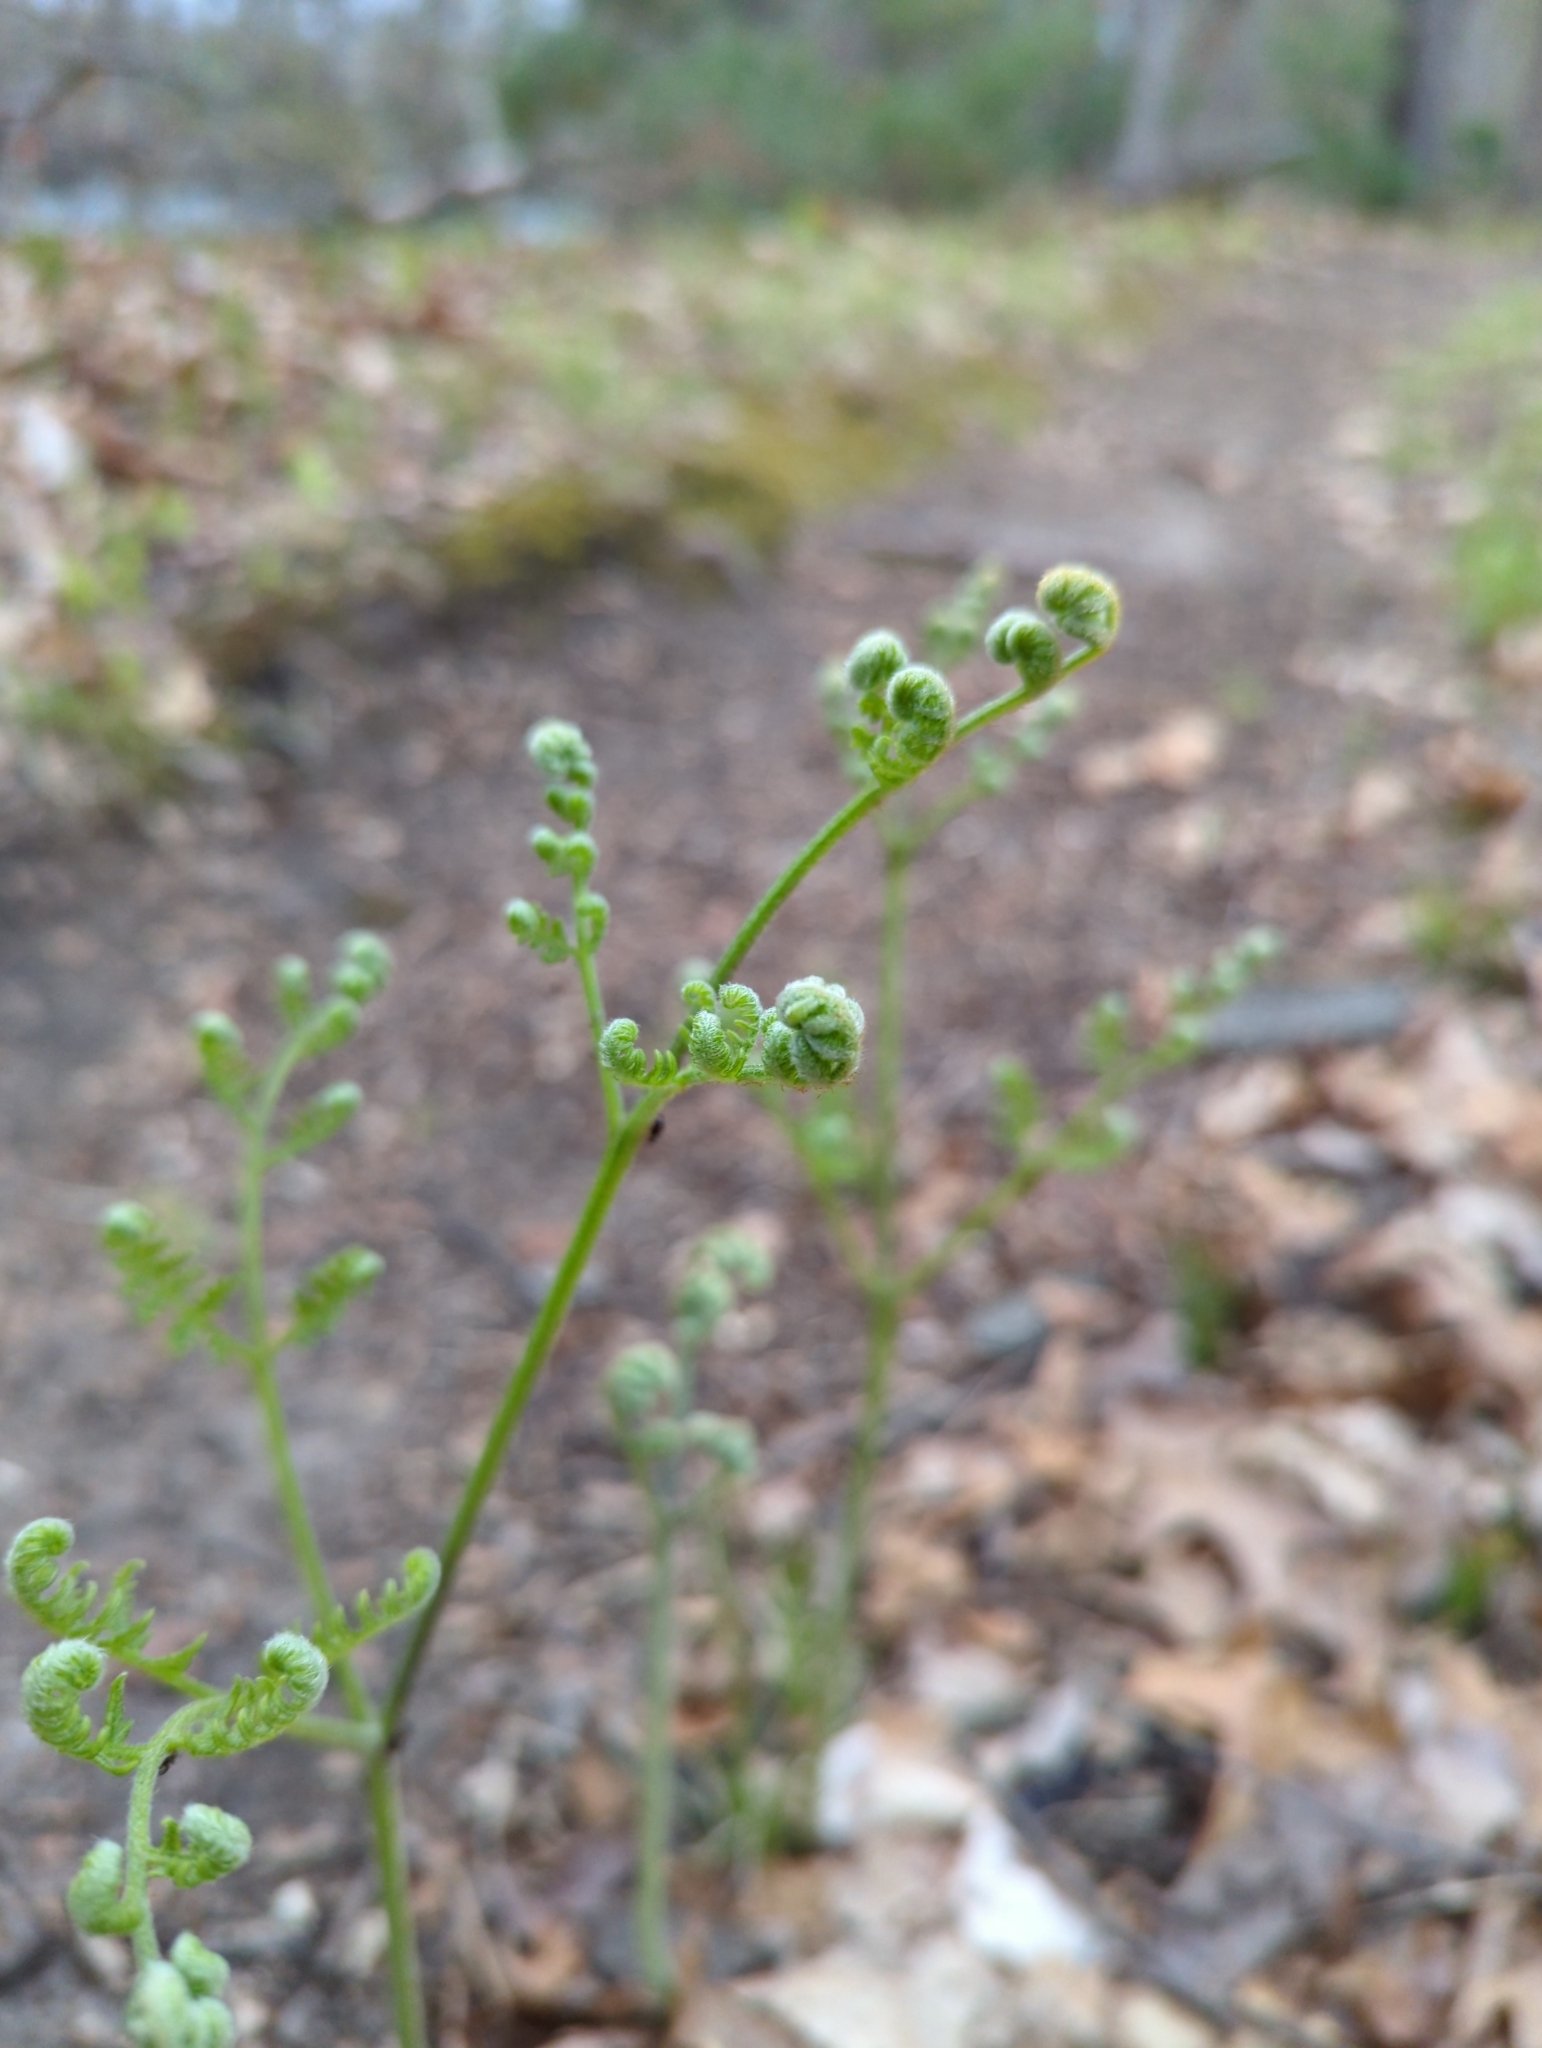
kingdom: Plantae
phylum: Tracheophyta
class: Polypodiopsida
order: Polypodiales
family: Dennstaedtiaceae
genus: Pteridium
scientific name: Pteridium aquilinum
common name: Bracken
